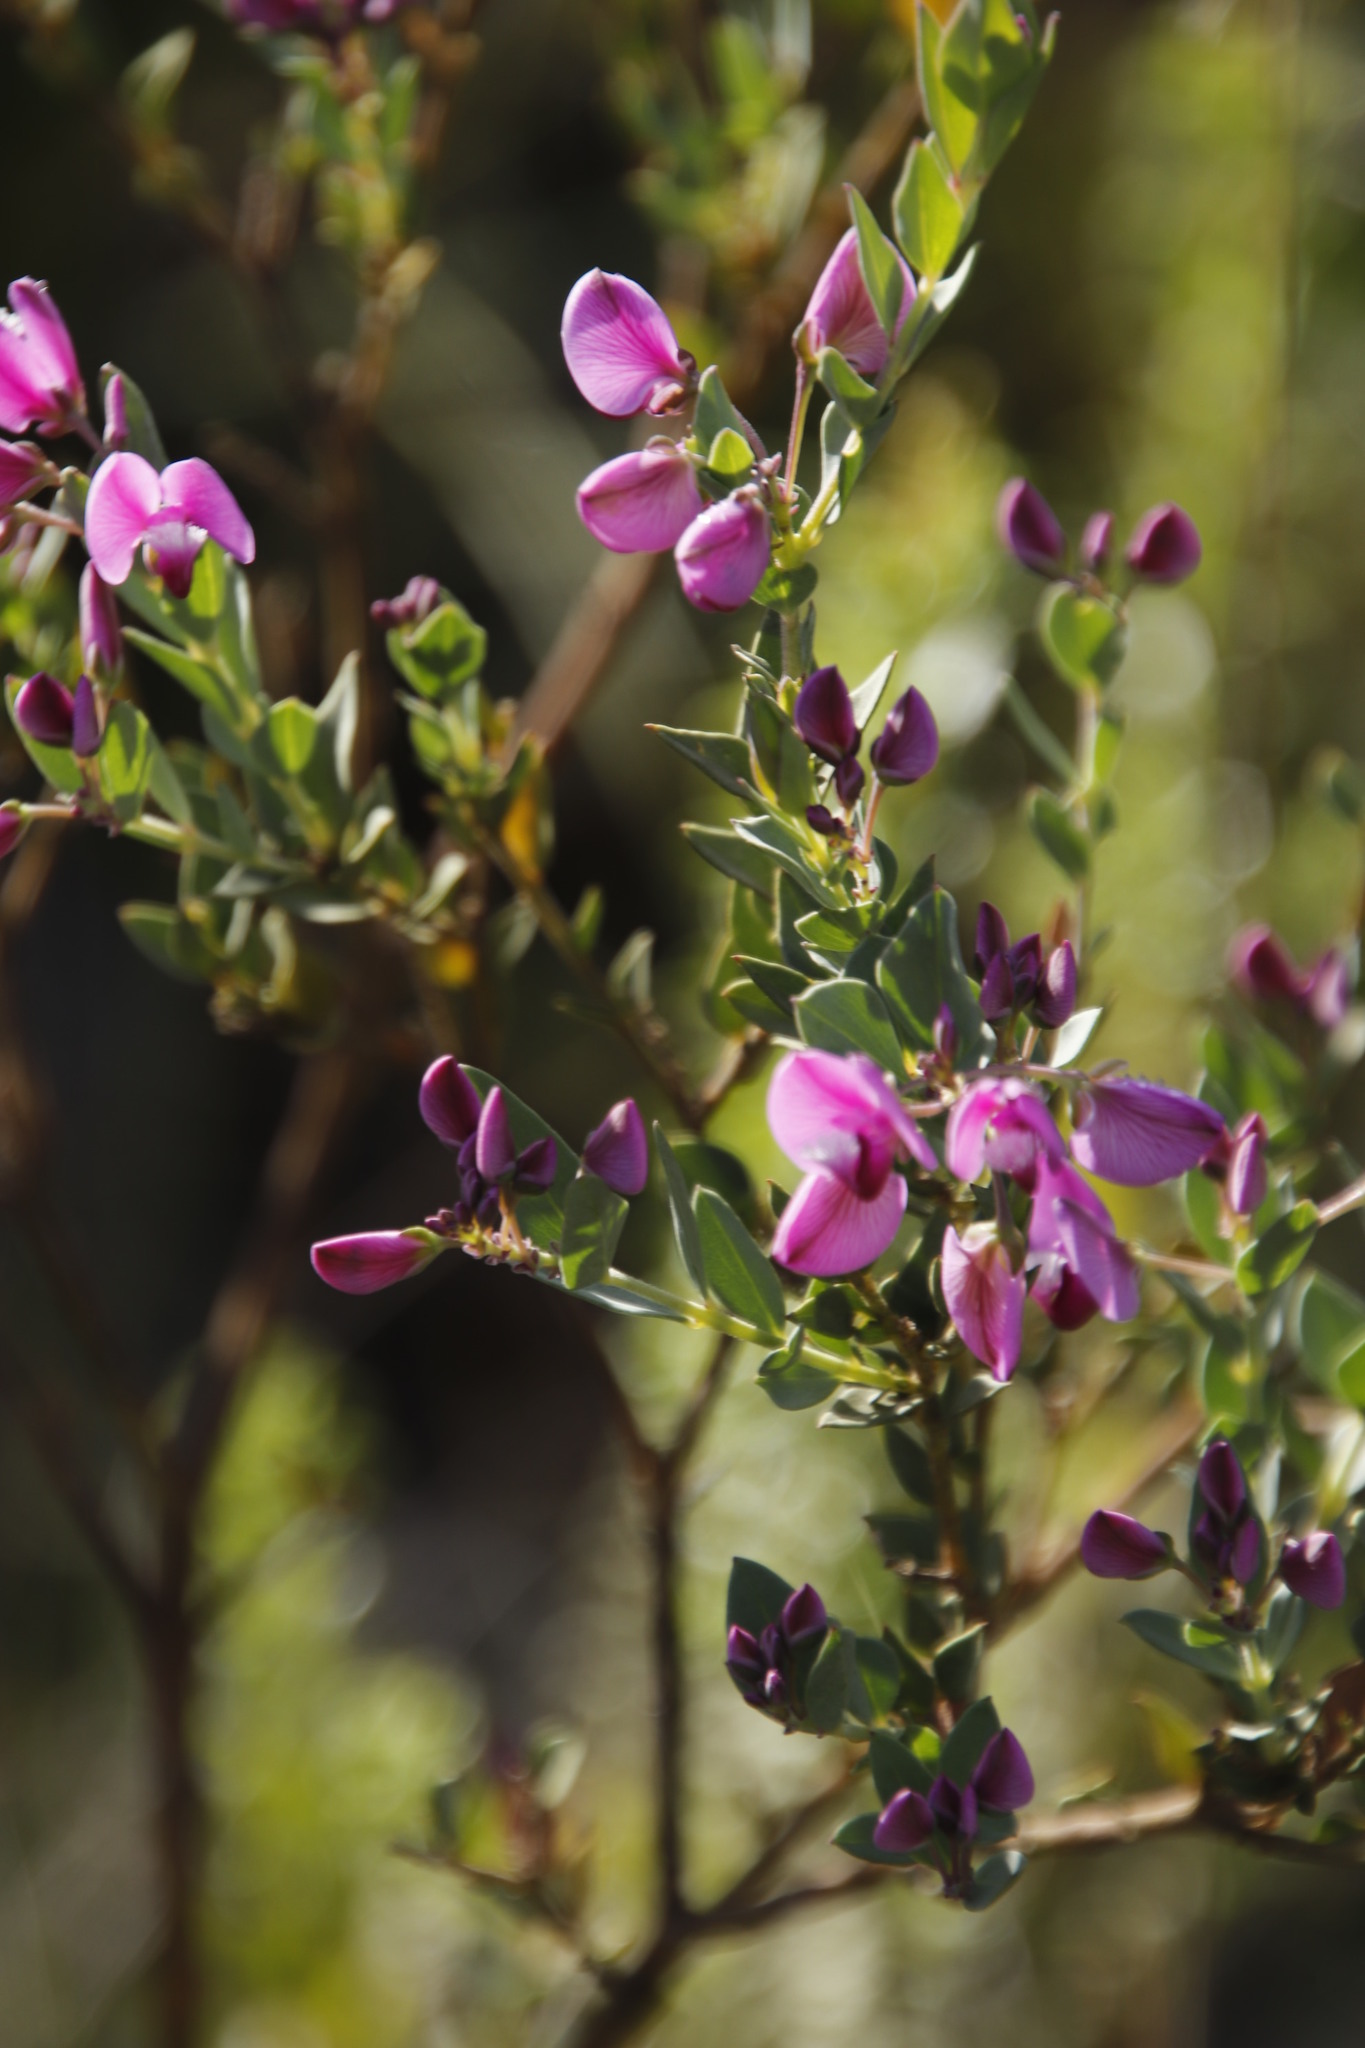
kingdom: Plantae
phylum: Tracheophyta
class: Magnoliopsida
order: Fabales
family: Polygalaceae
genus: Polygala
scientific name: Polygala fruticosa
